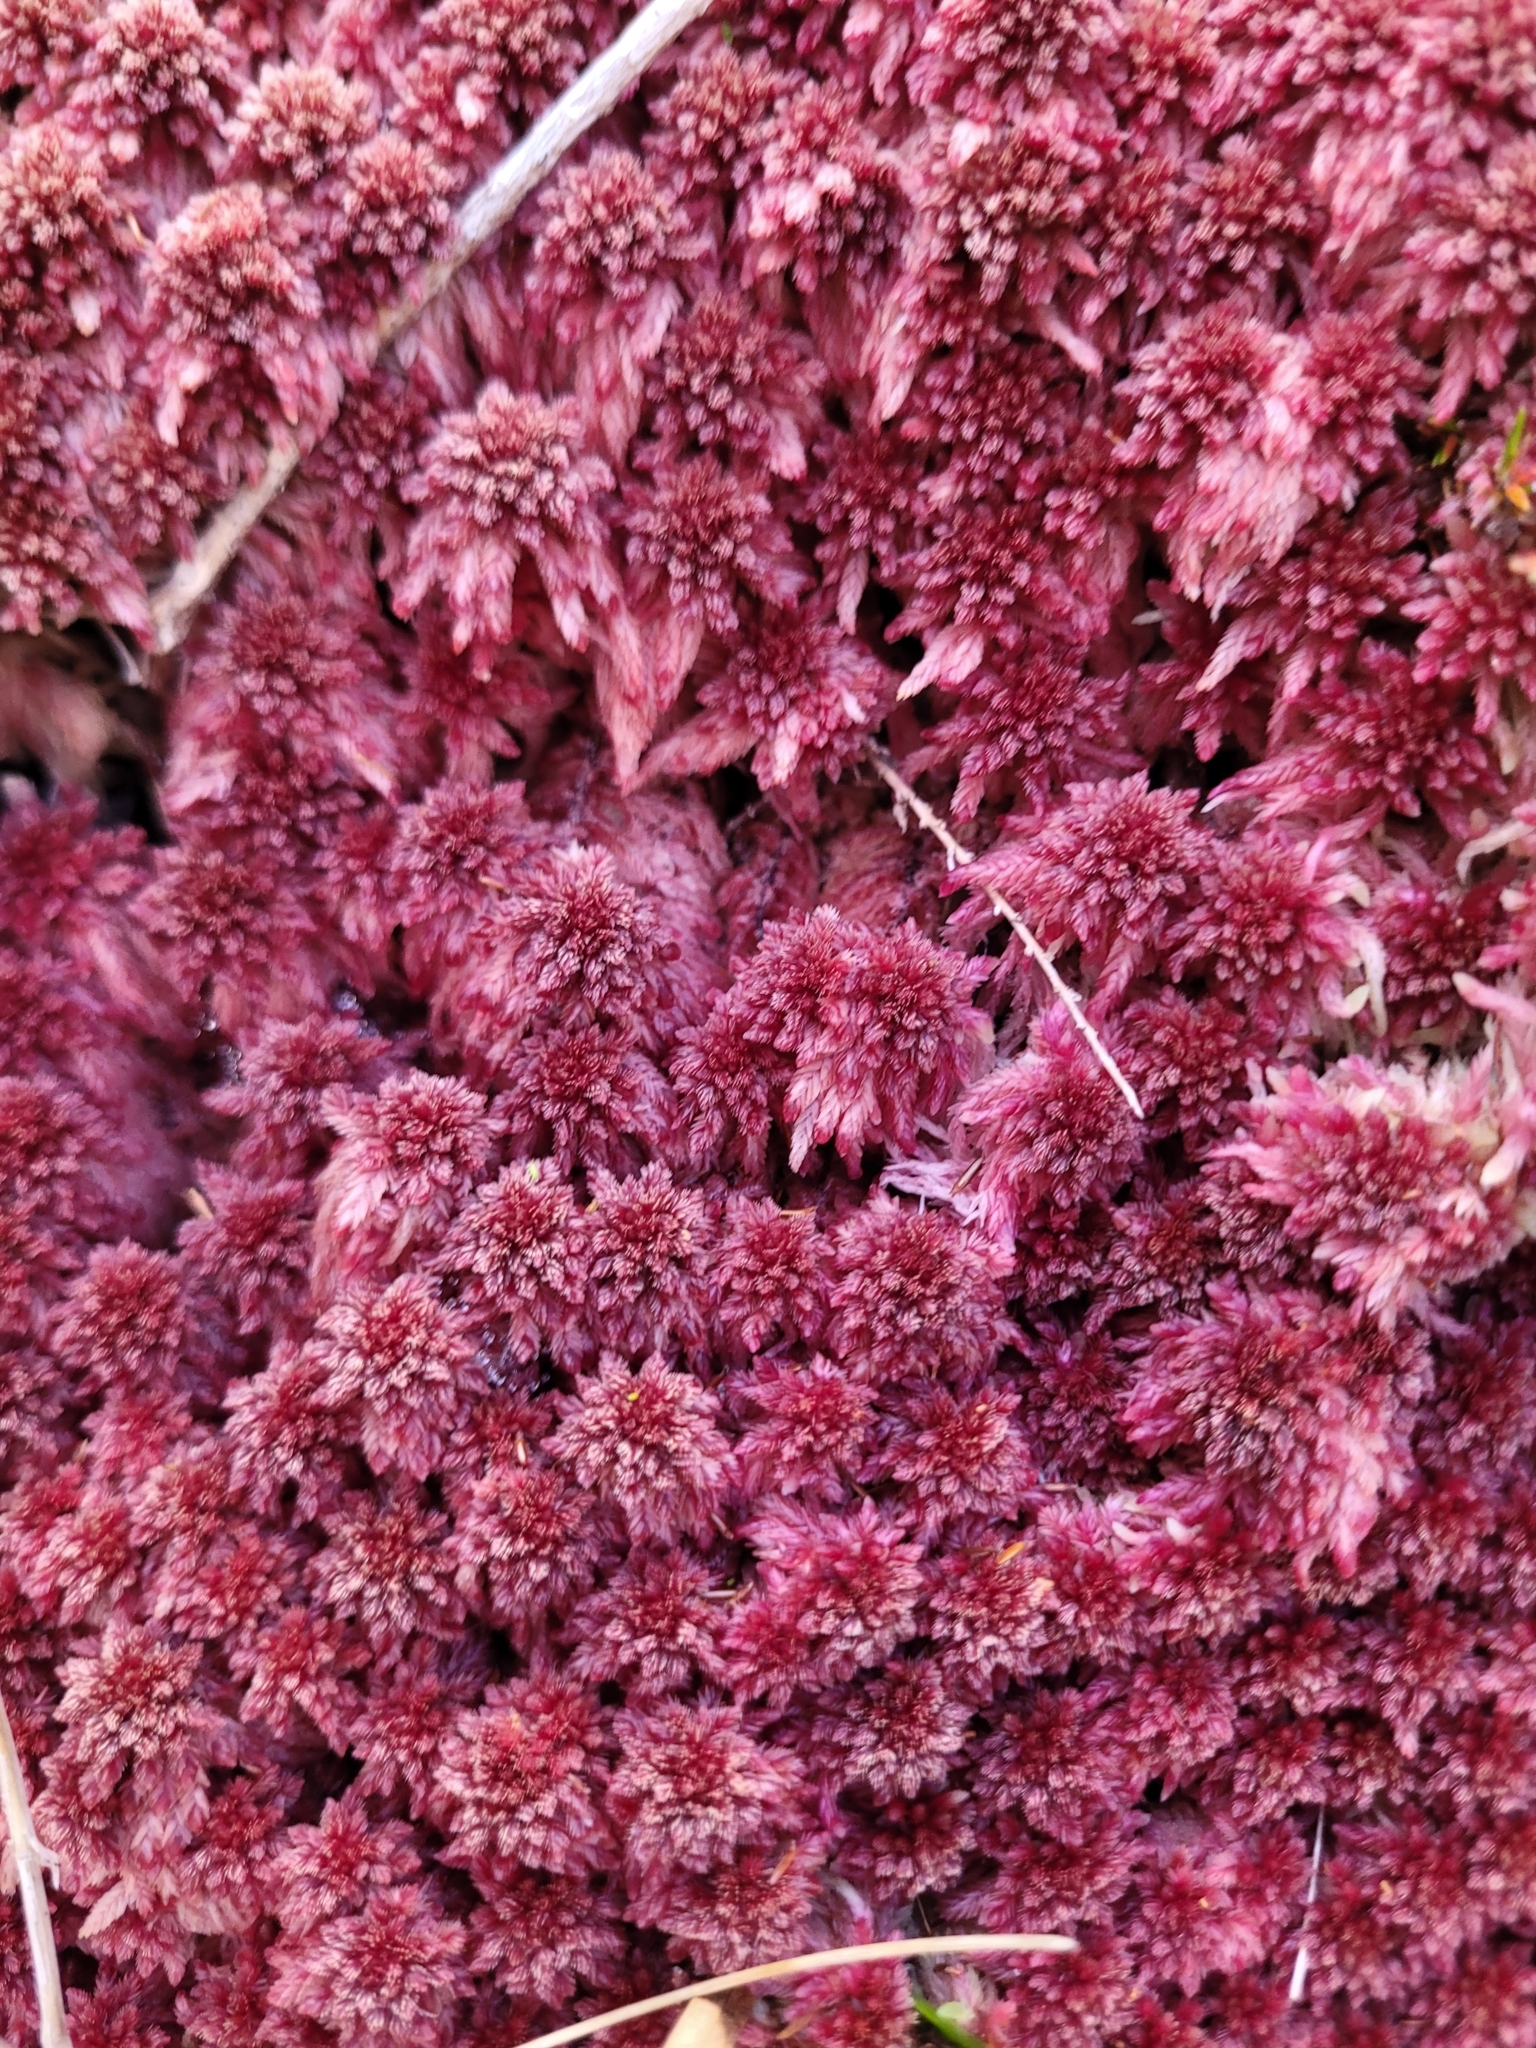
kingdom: Plantae
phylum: Bryophyta
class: Sphagnopsida
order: Sphagnales
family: Sphagnaceae
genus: Sphagnum
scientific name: Sphagnum violascens
